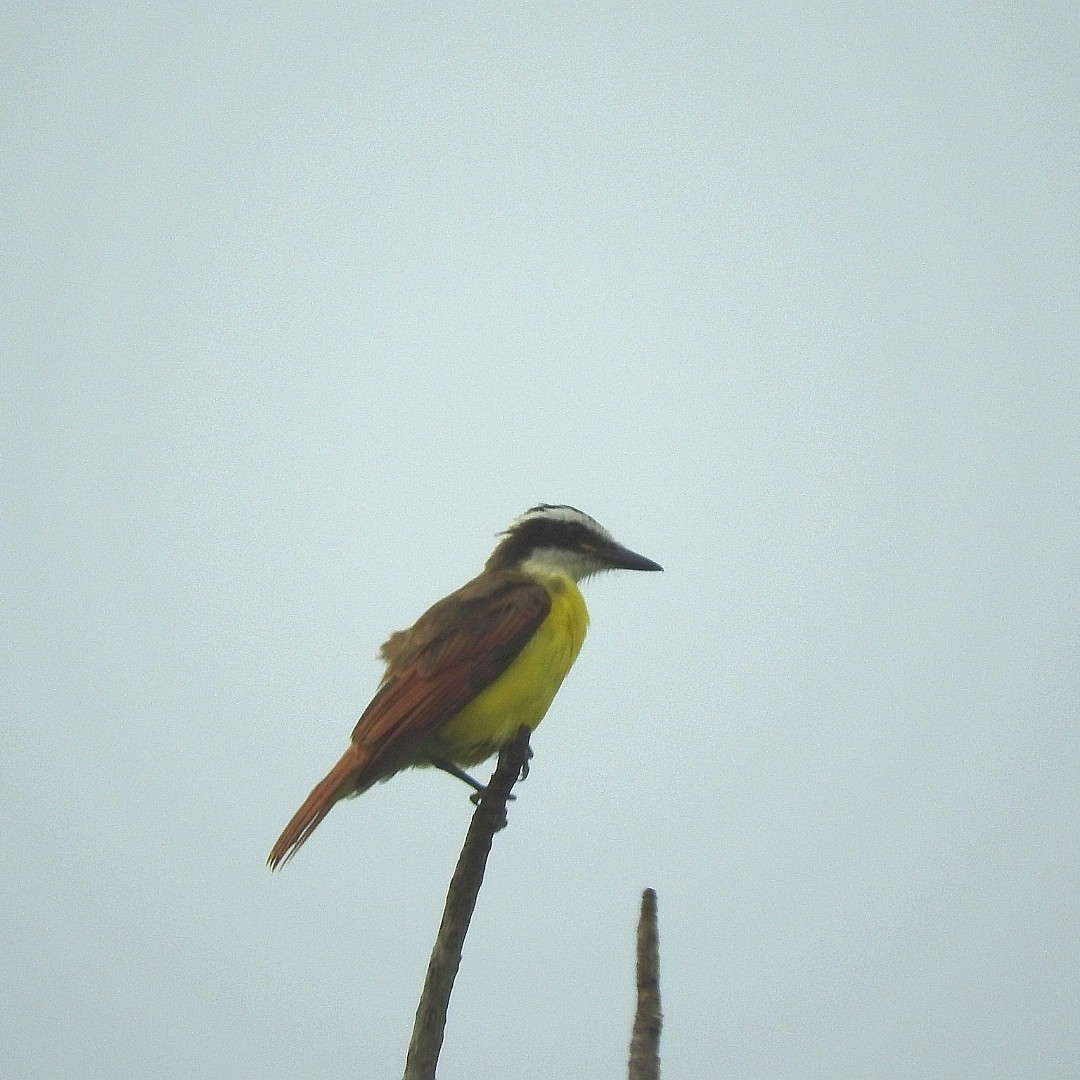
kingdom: Animalia
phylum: Chordata
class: Aves
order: Passeriformes
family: Tyrannidae
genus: Pitangus
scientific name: Pitangus sulphuratus
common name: Great kiskadee
